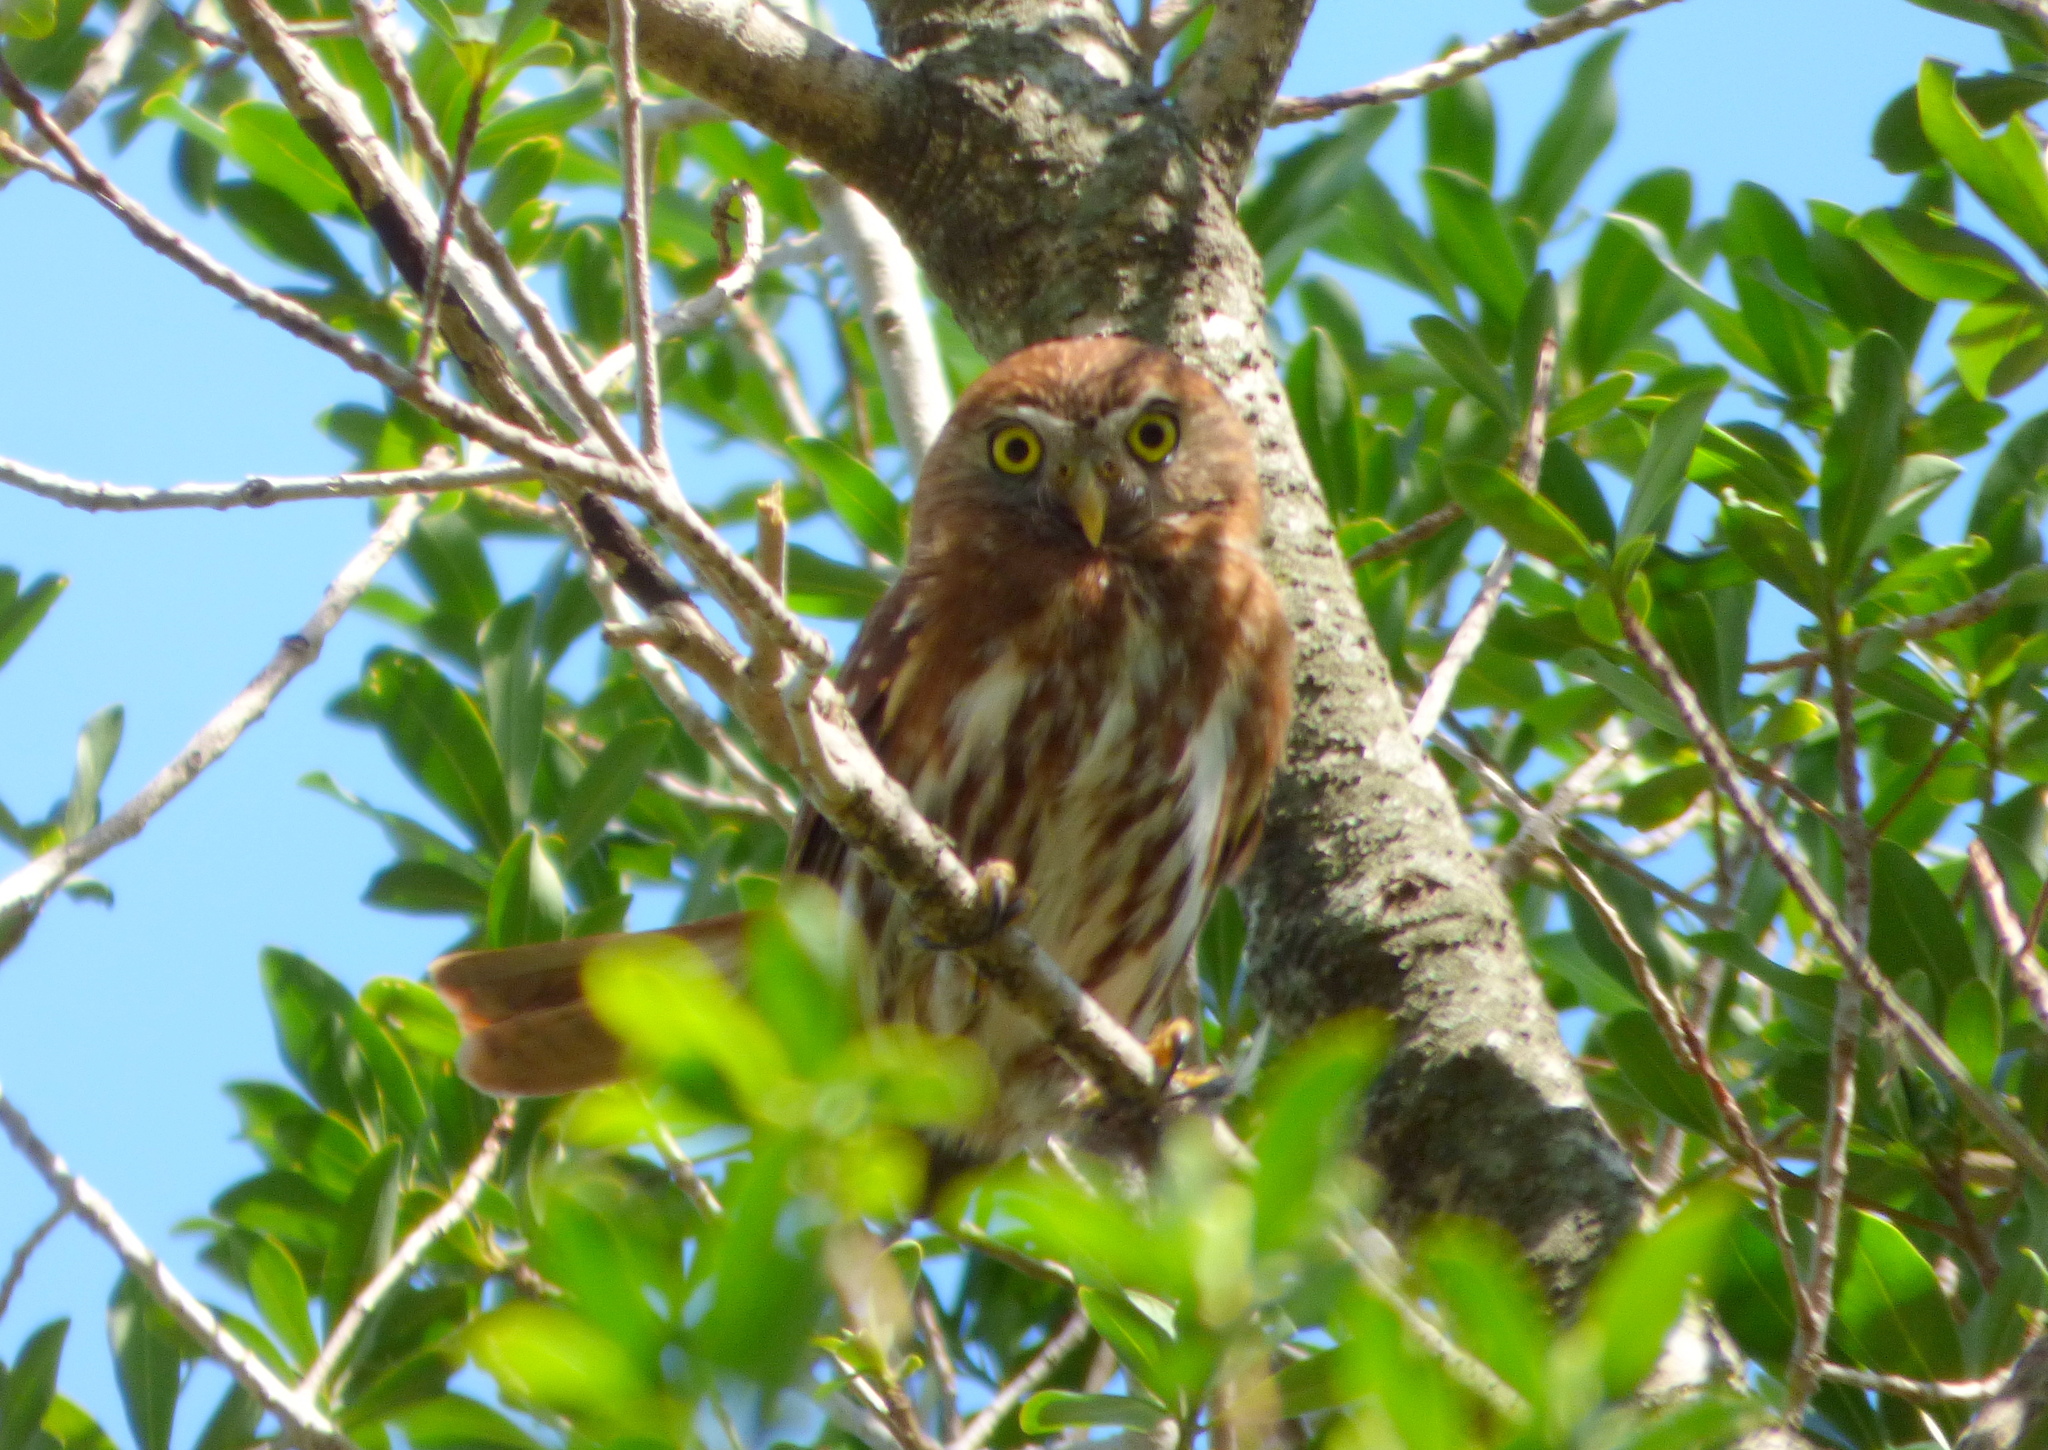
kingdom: Animalia
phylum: Chordata
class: Aves
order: Strigiformes
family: Strigidae
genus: Glaucidium
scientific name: Glaucidium brasilianum
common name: Ferruginous pygmy-owl
